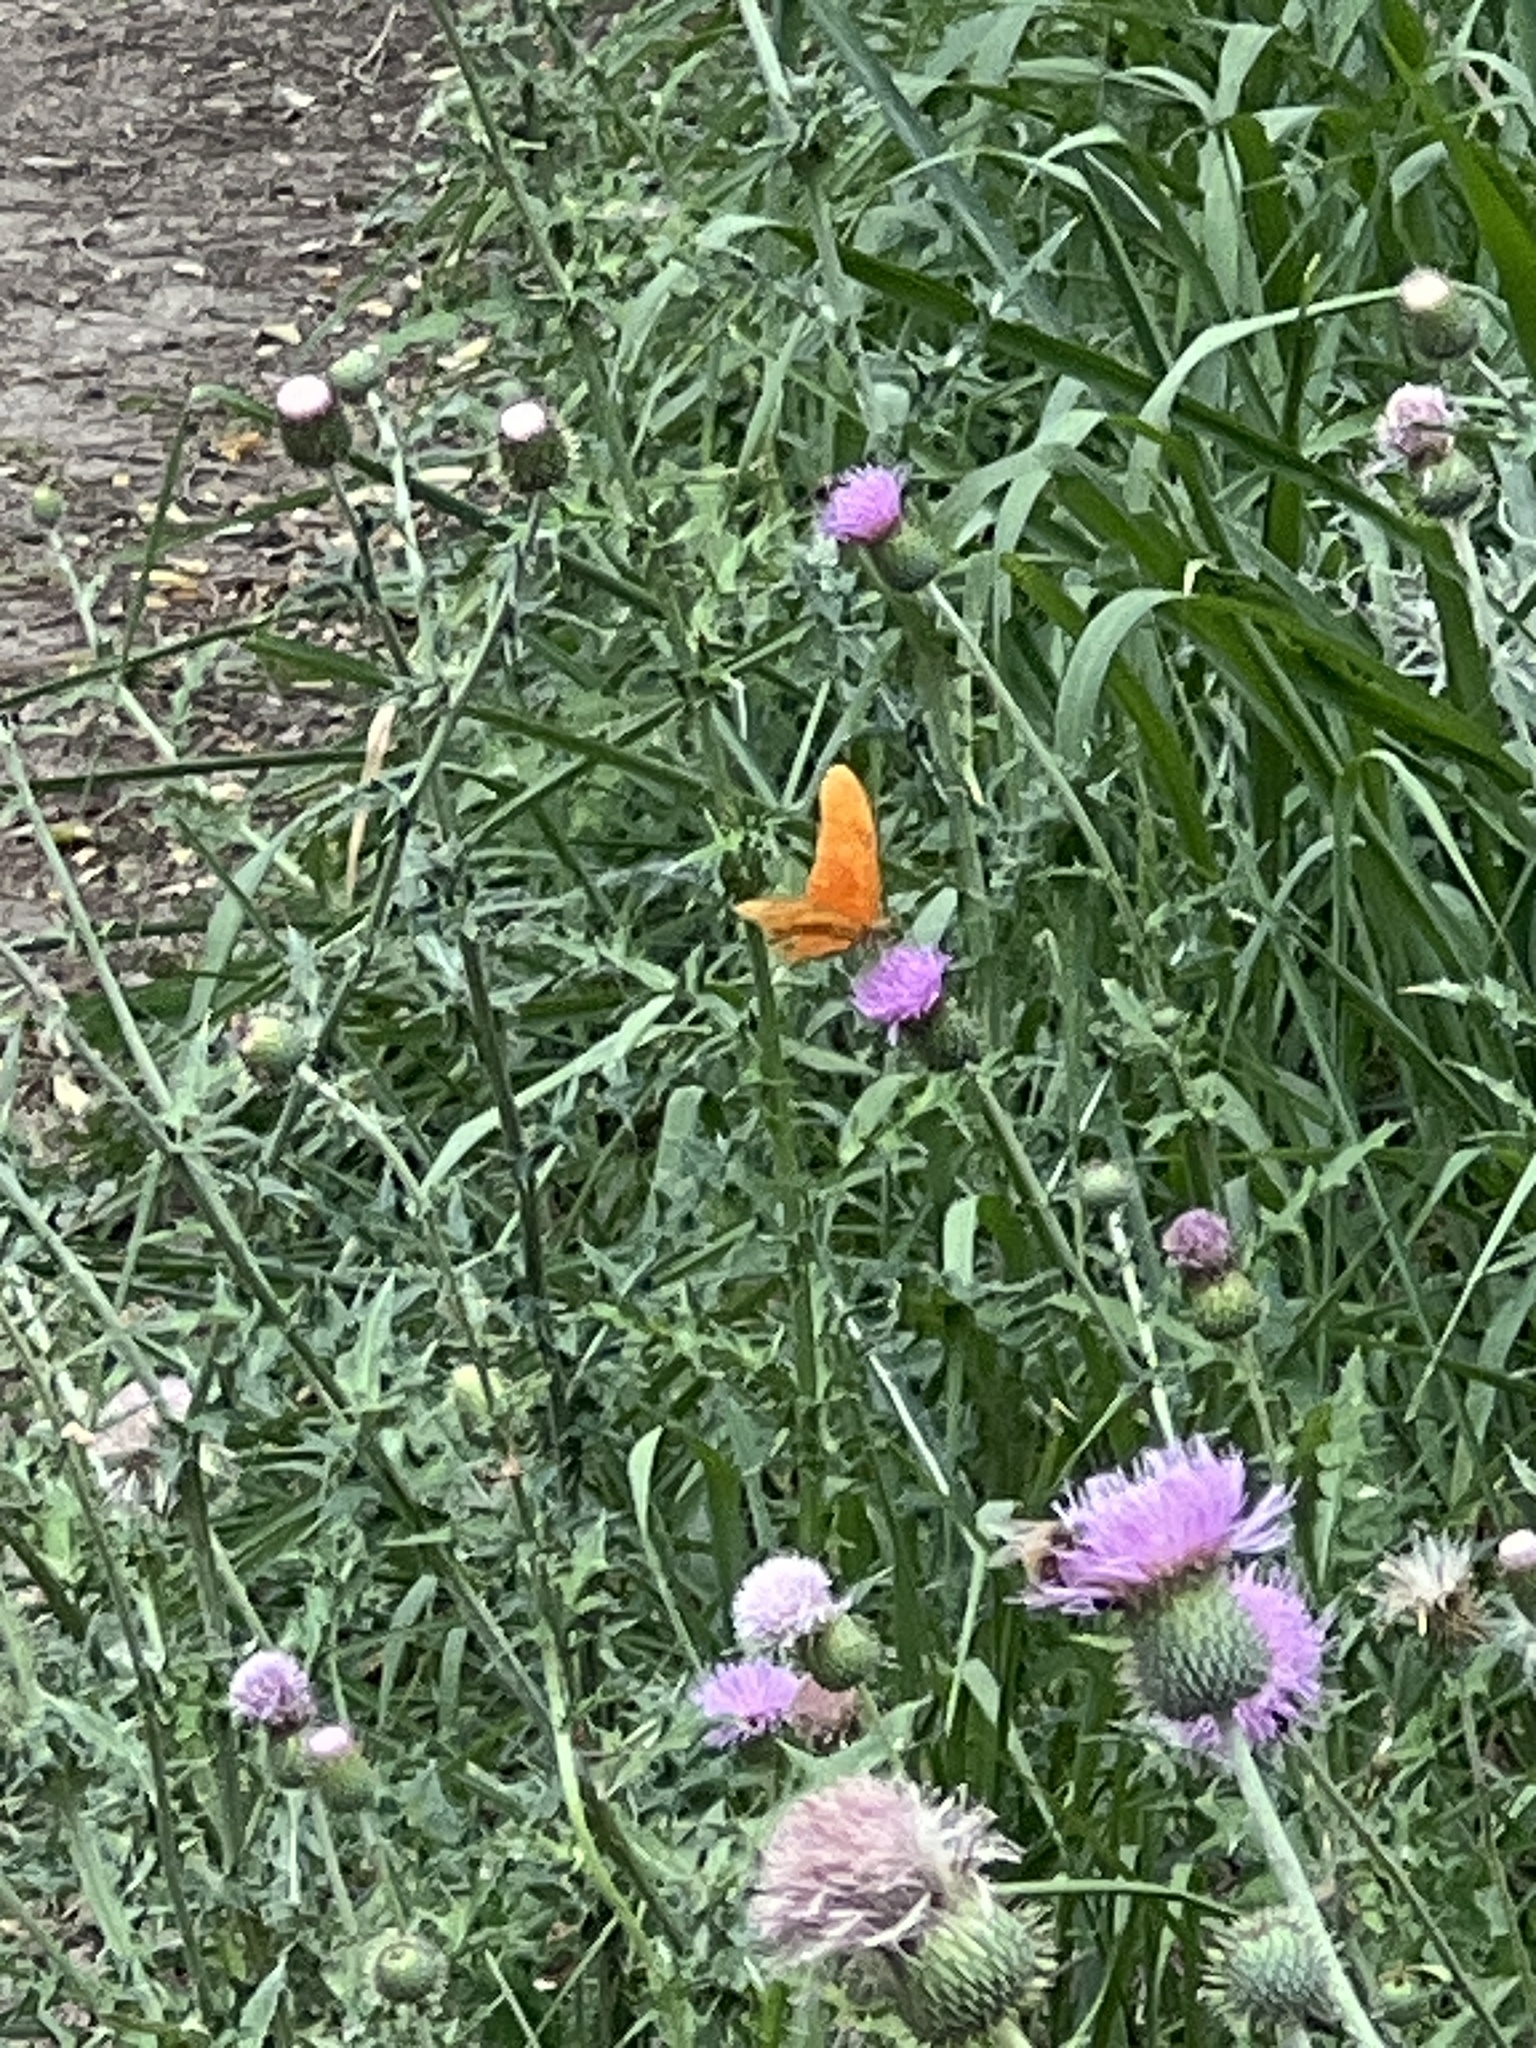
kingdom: Animalia
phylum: Arthropoda
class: Insecta
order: Lepidoptera
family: Nymphalidae
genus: Dryas
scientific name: Dryas iulia
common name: Flambeau
